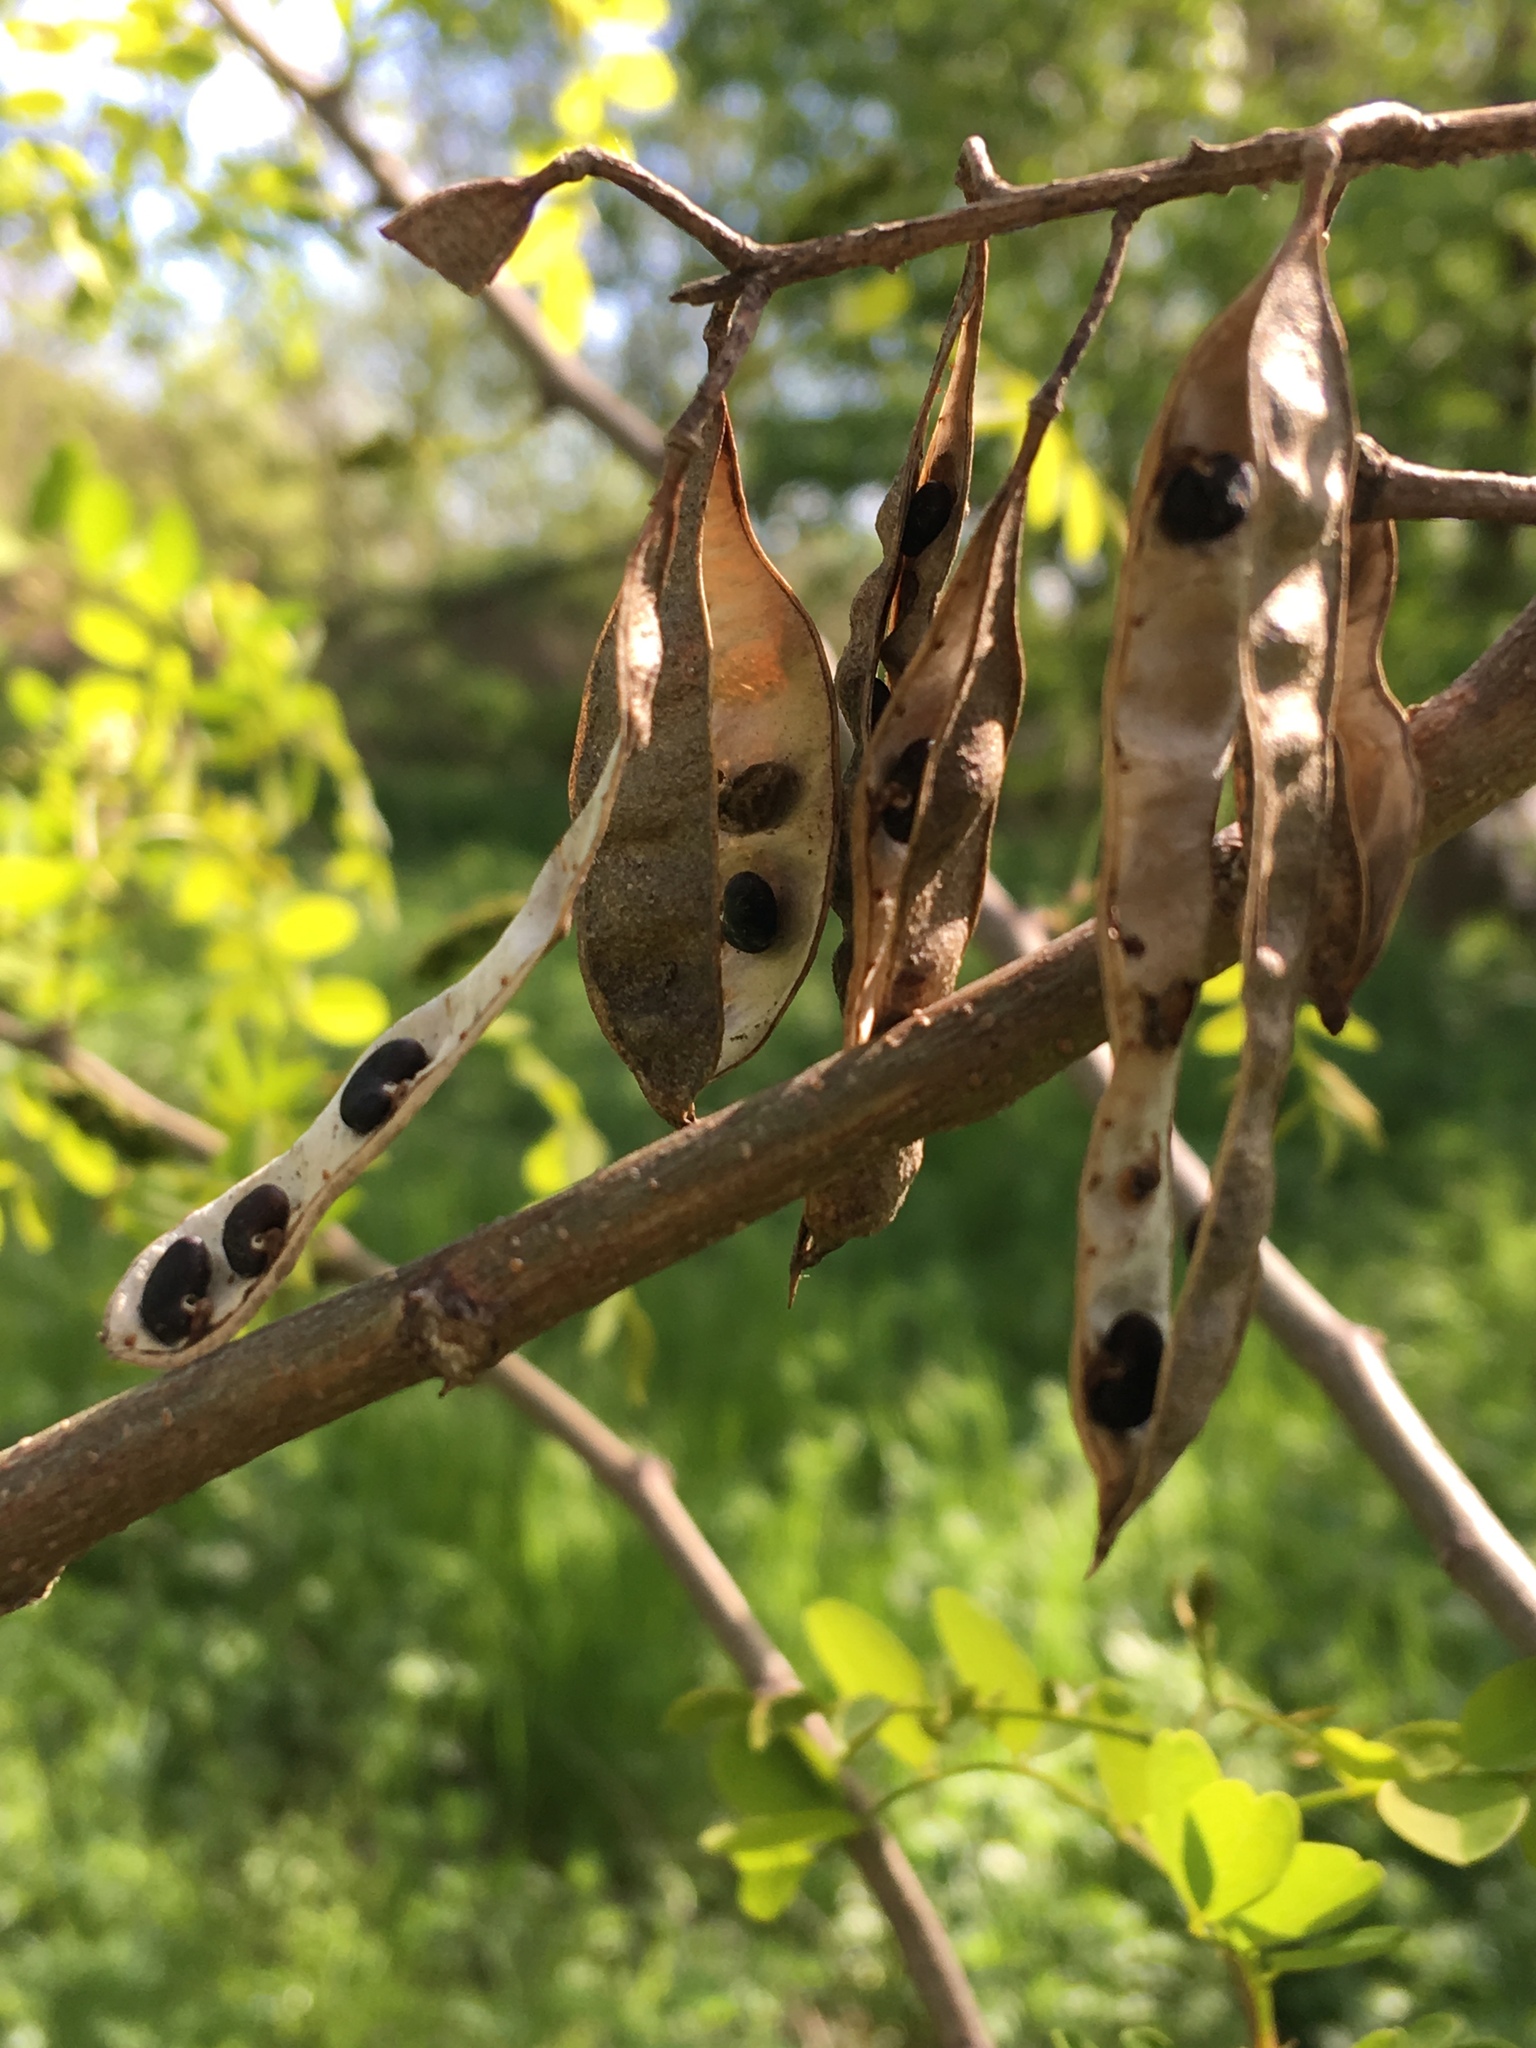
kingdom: Plantae
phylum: Tracheophyta
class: Magnoliopsida
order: Fabales
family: Fabaceae
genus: Robinia
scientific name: Robinia pseudoacacia
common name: Black locust
